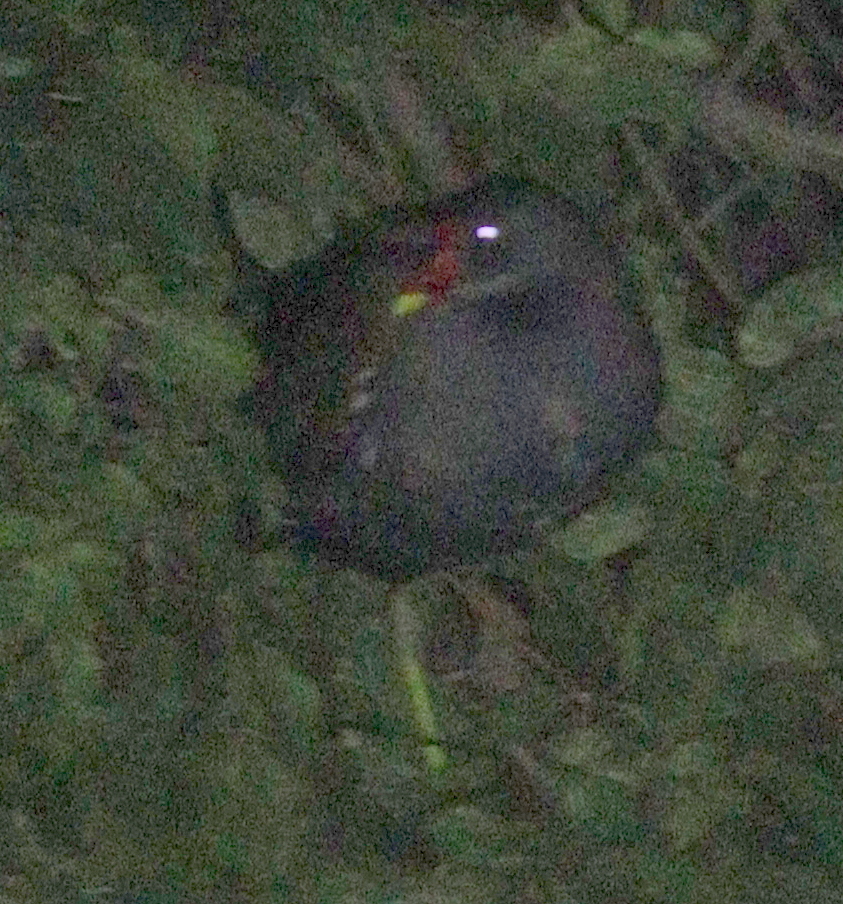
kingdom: Animalia
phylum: Chordata
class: Aves
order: Gruiformes
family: Rallidae
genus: Gallinula
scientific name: Gallinula chloropus
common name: Common moorhen
